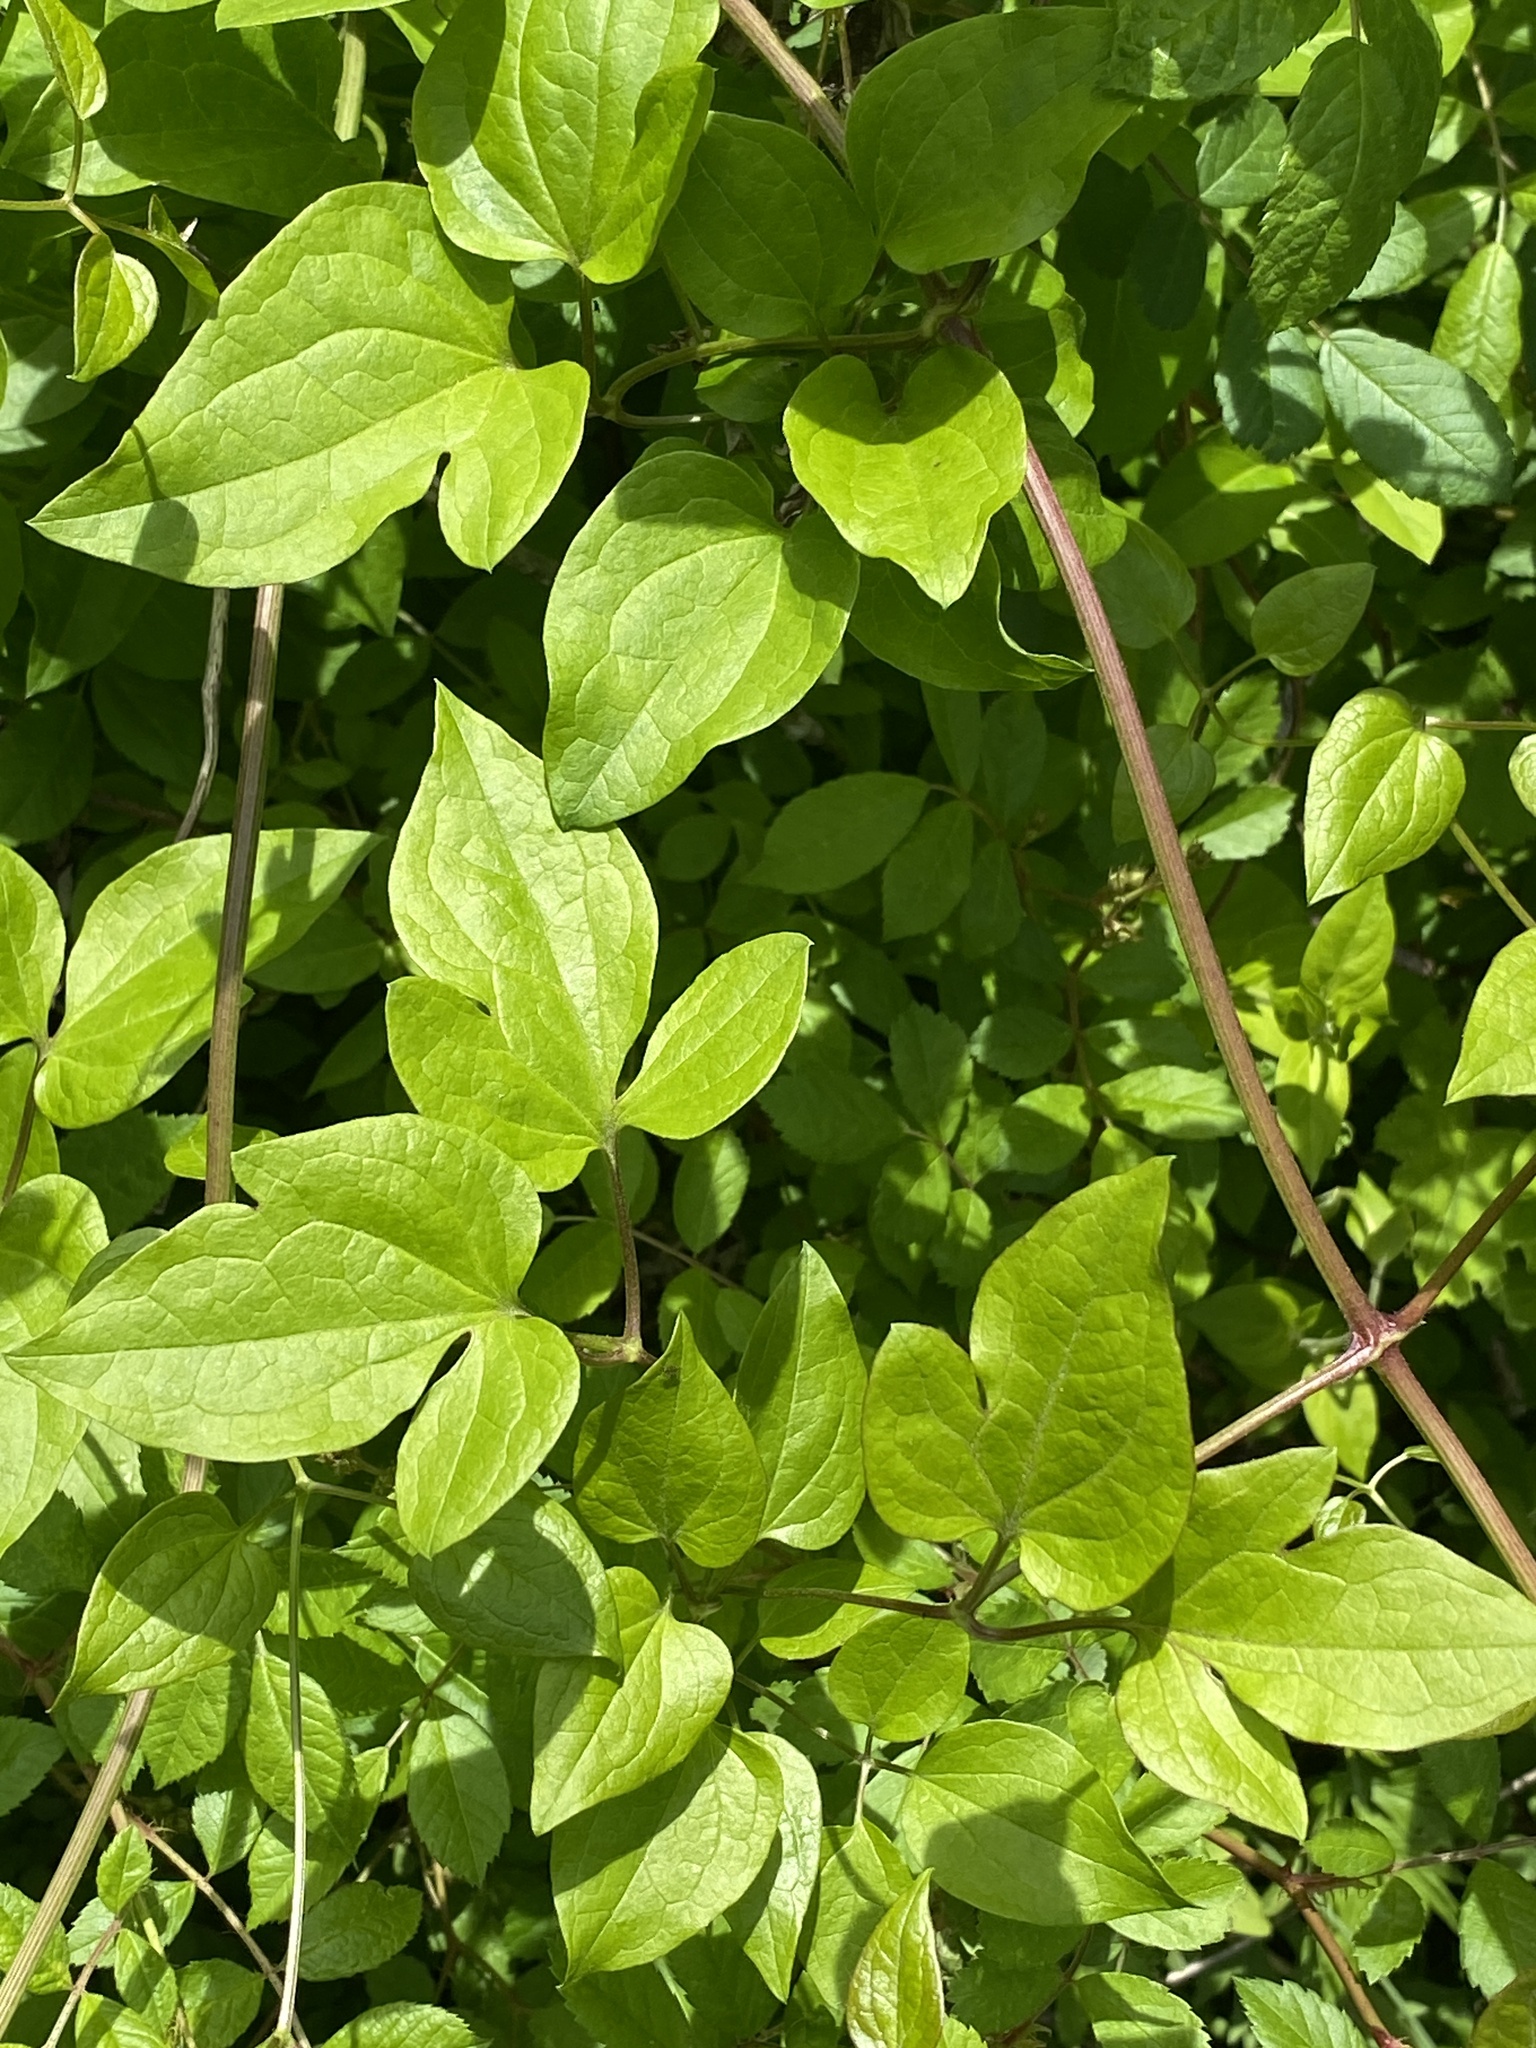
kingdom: Plantae
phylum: Tracheophyta
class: Magnoliopsida
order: Ranunculales
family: Ranunculaceae
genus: Clematis
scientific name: Clematis terniflora
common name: Sweet autumn clematis
